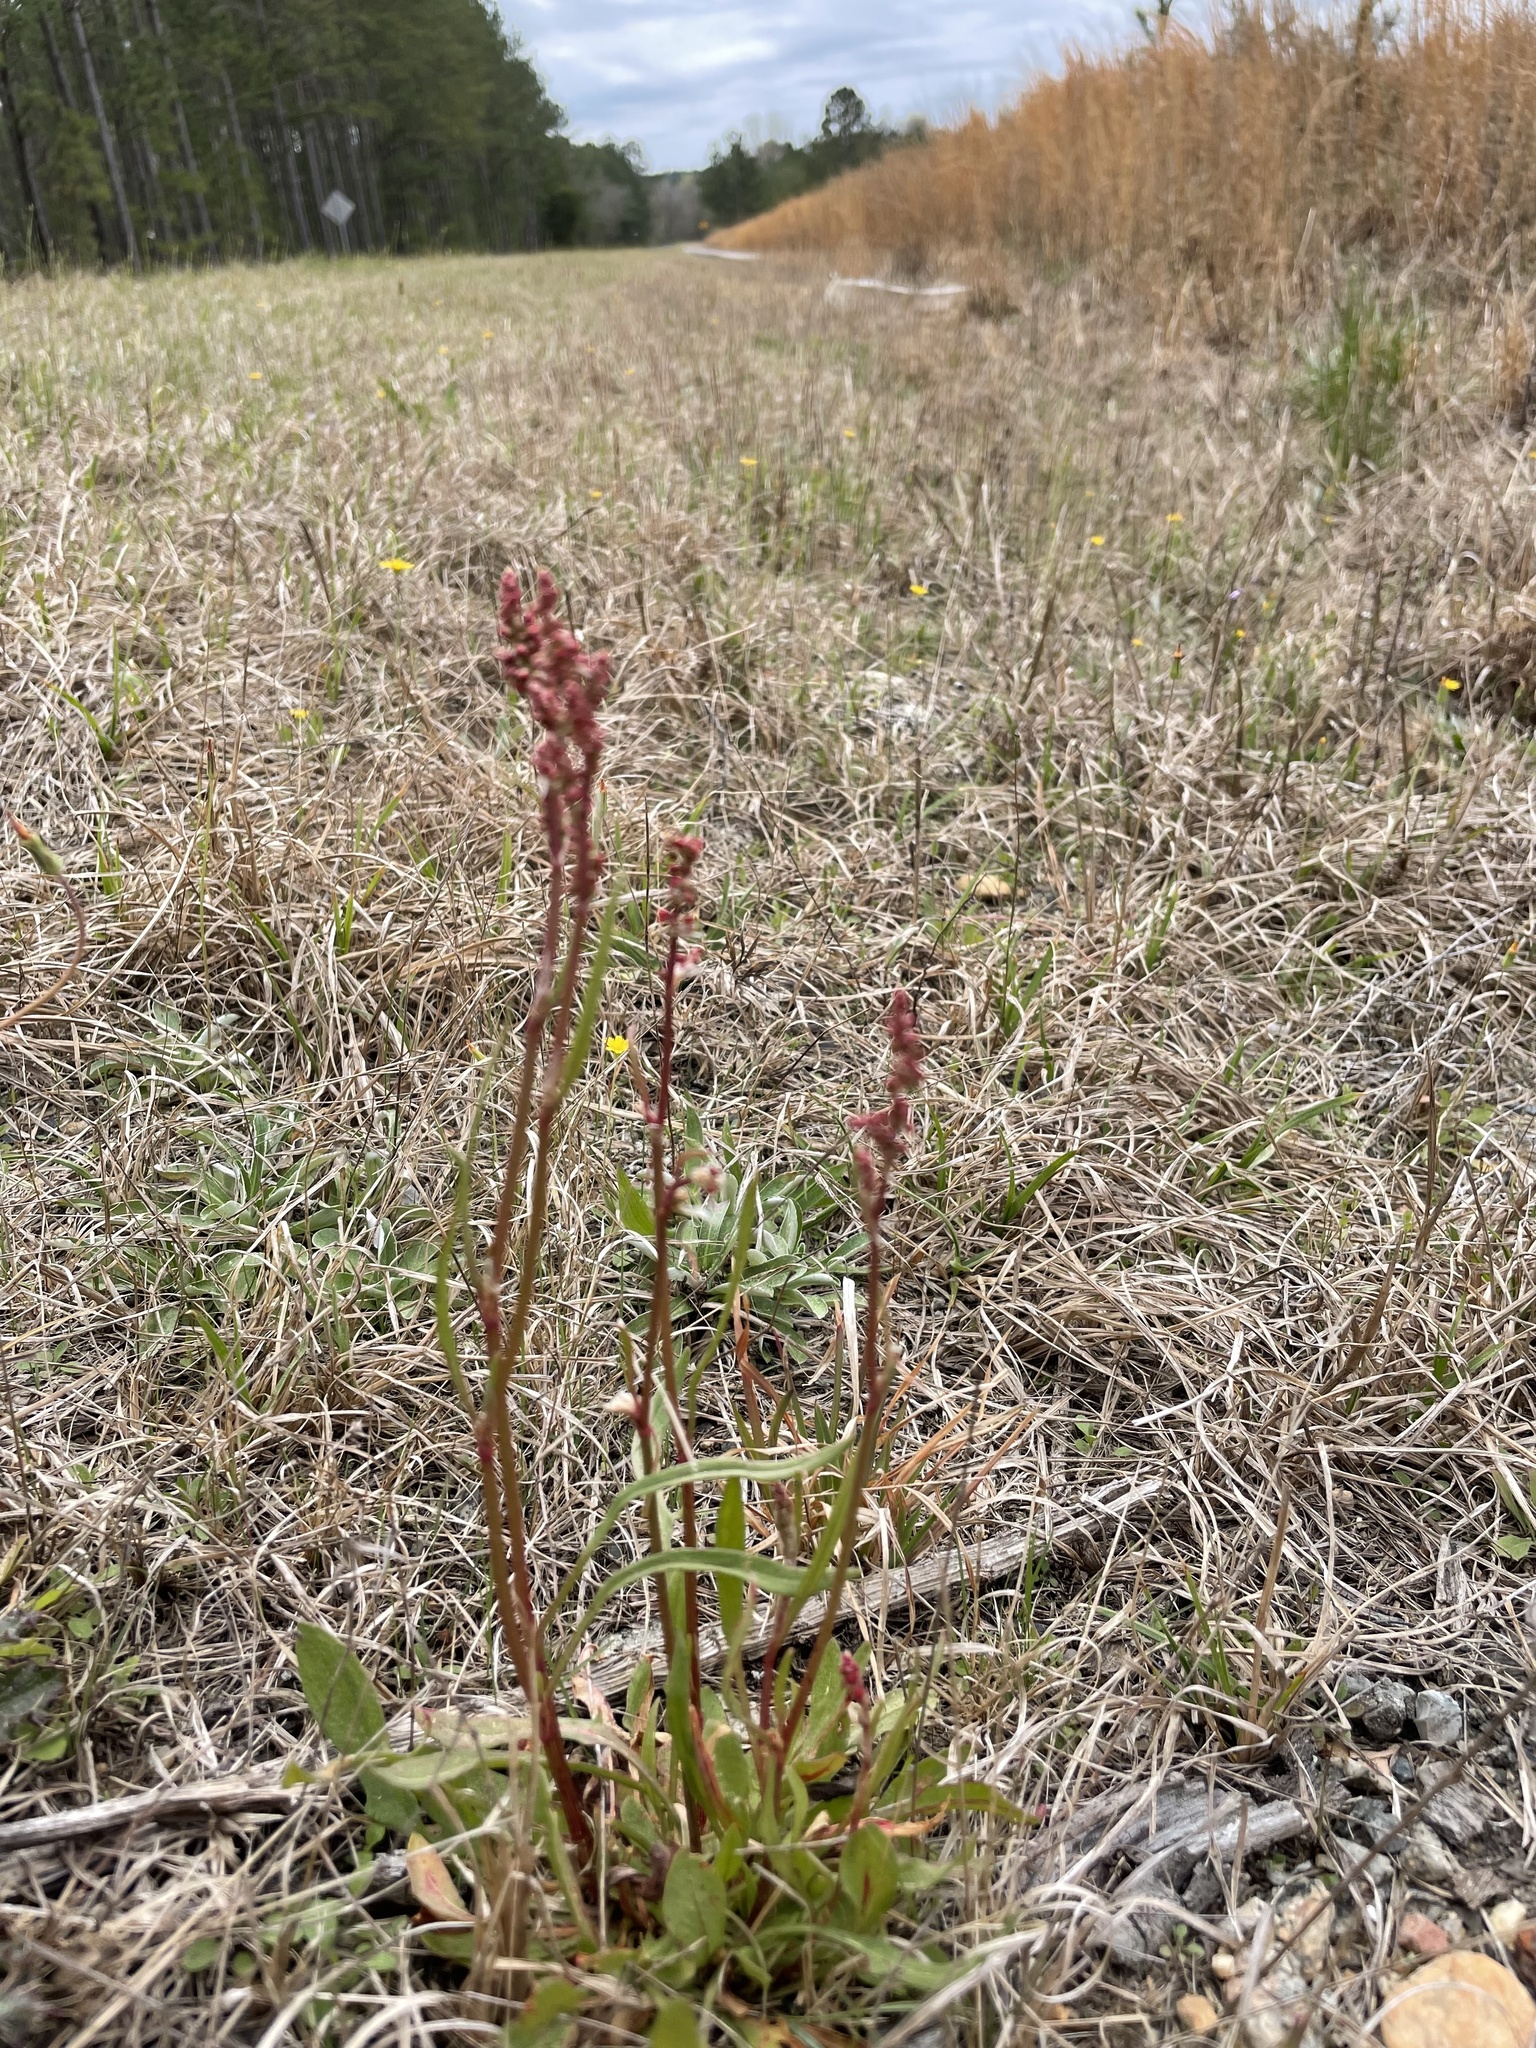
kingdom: Plantae
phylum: Tracheophyta
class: Magnoliopsida
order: Caryophyllales
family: Polygonaceae
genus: Rumex
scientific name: Rumex hastatulus
